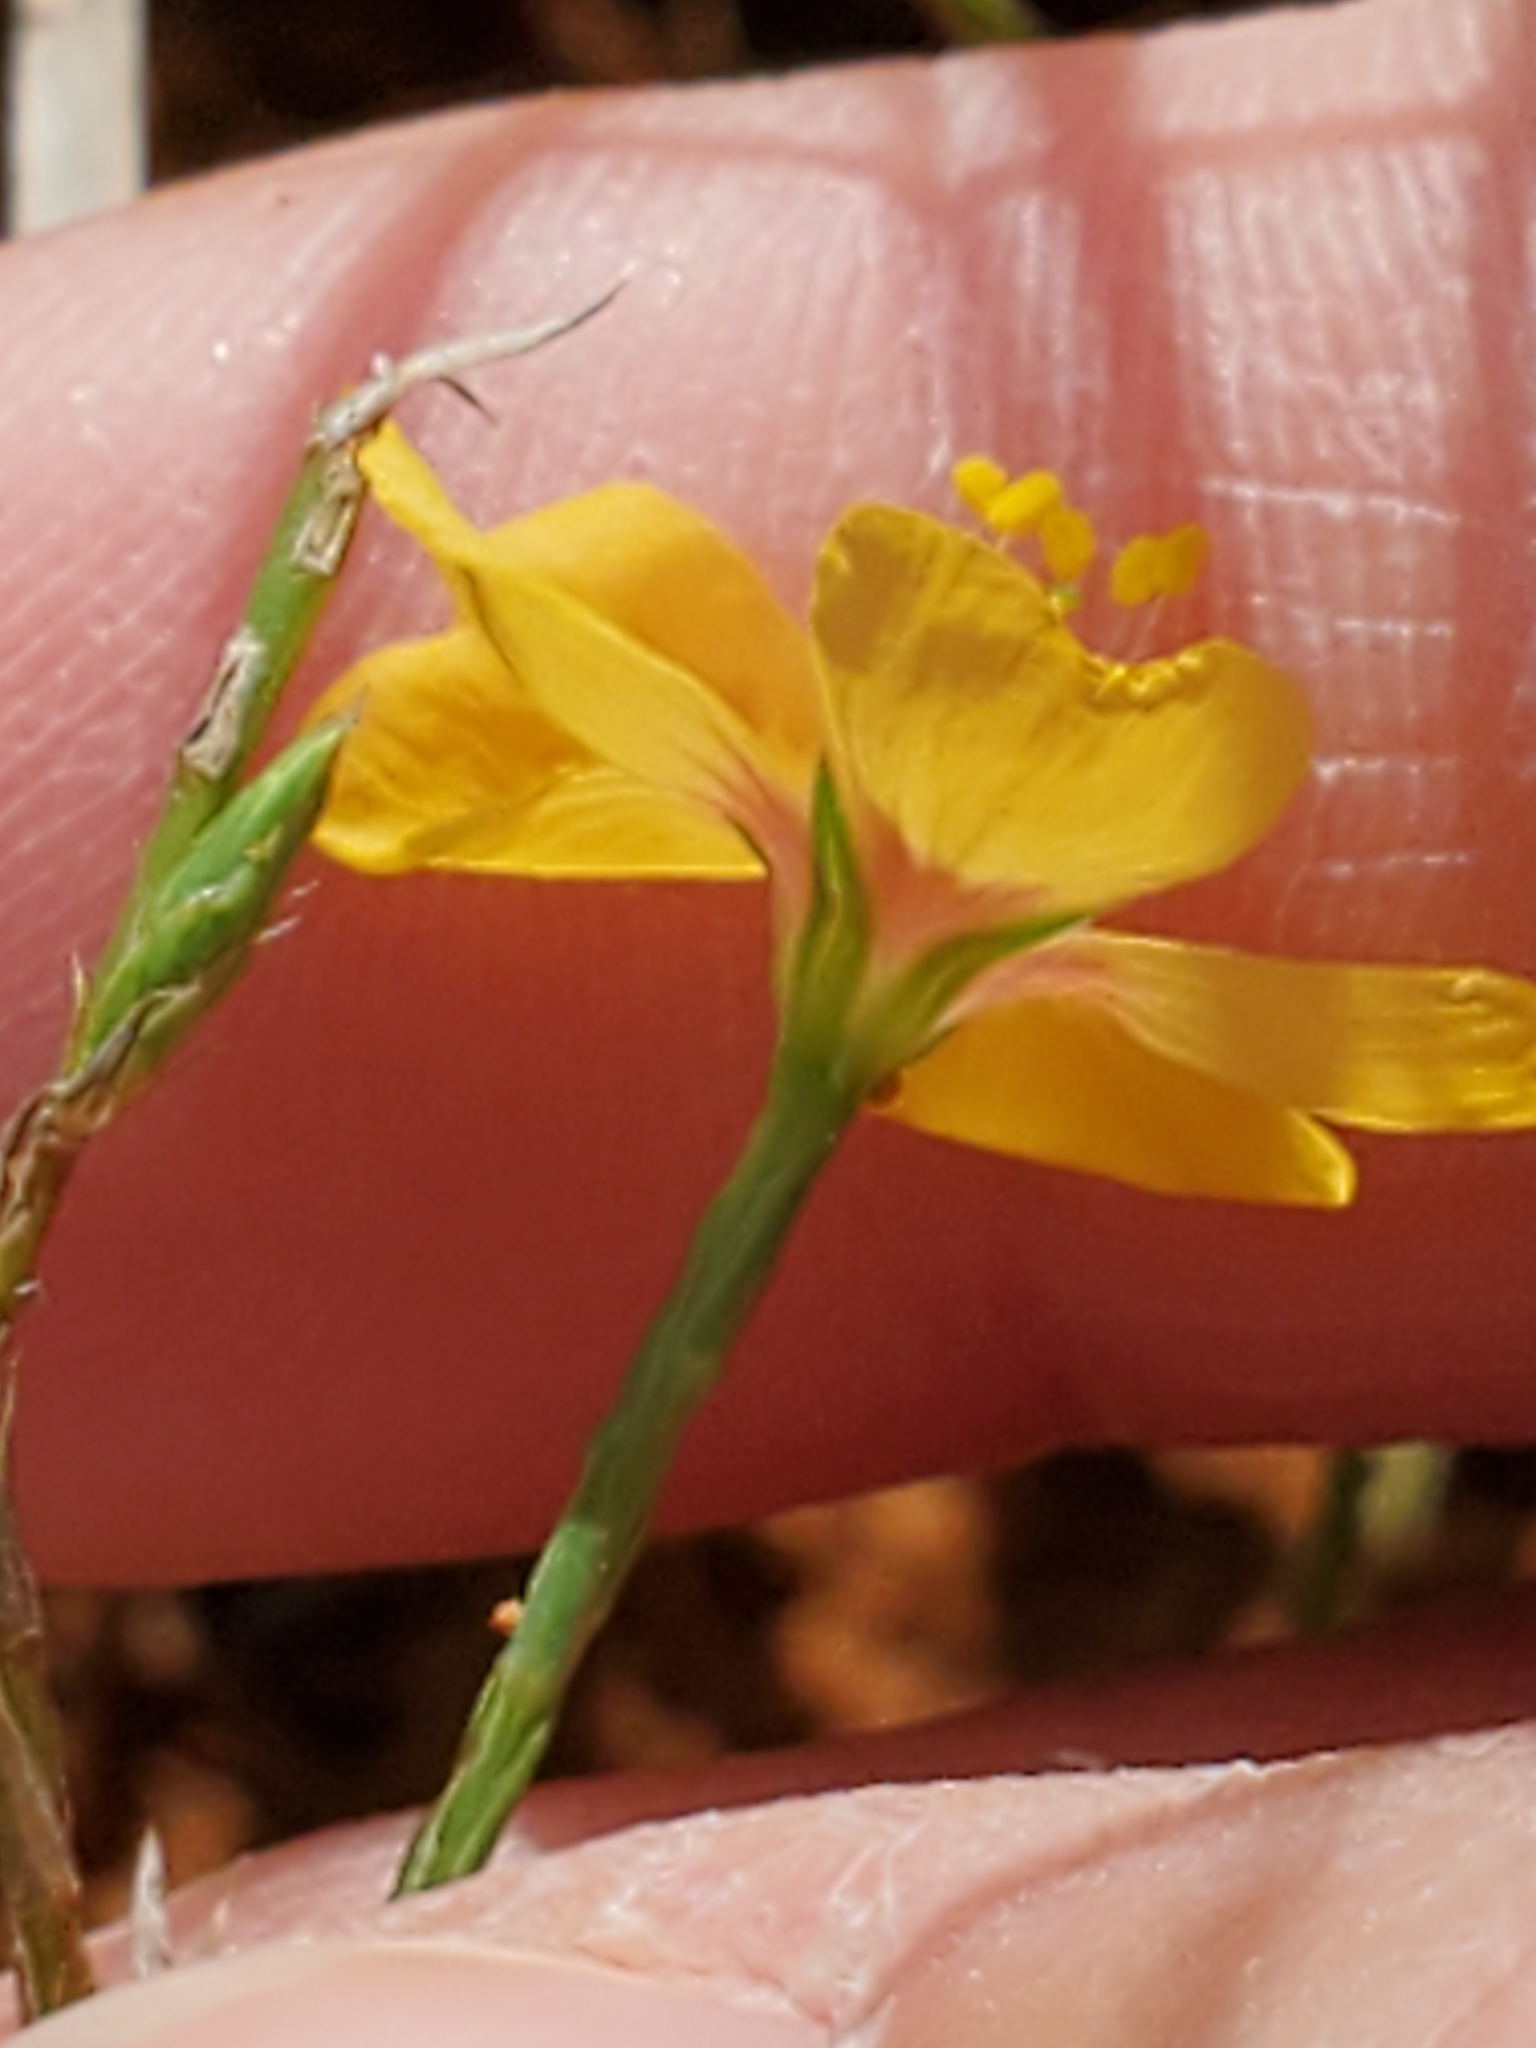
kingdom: Plantae
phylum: Tracheophyta
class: Magnoliopsida
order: Malpighiales
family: Linaceae
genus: Linum
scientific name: Linum hudsonioides
